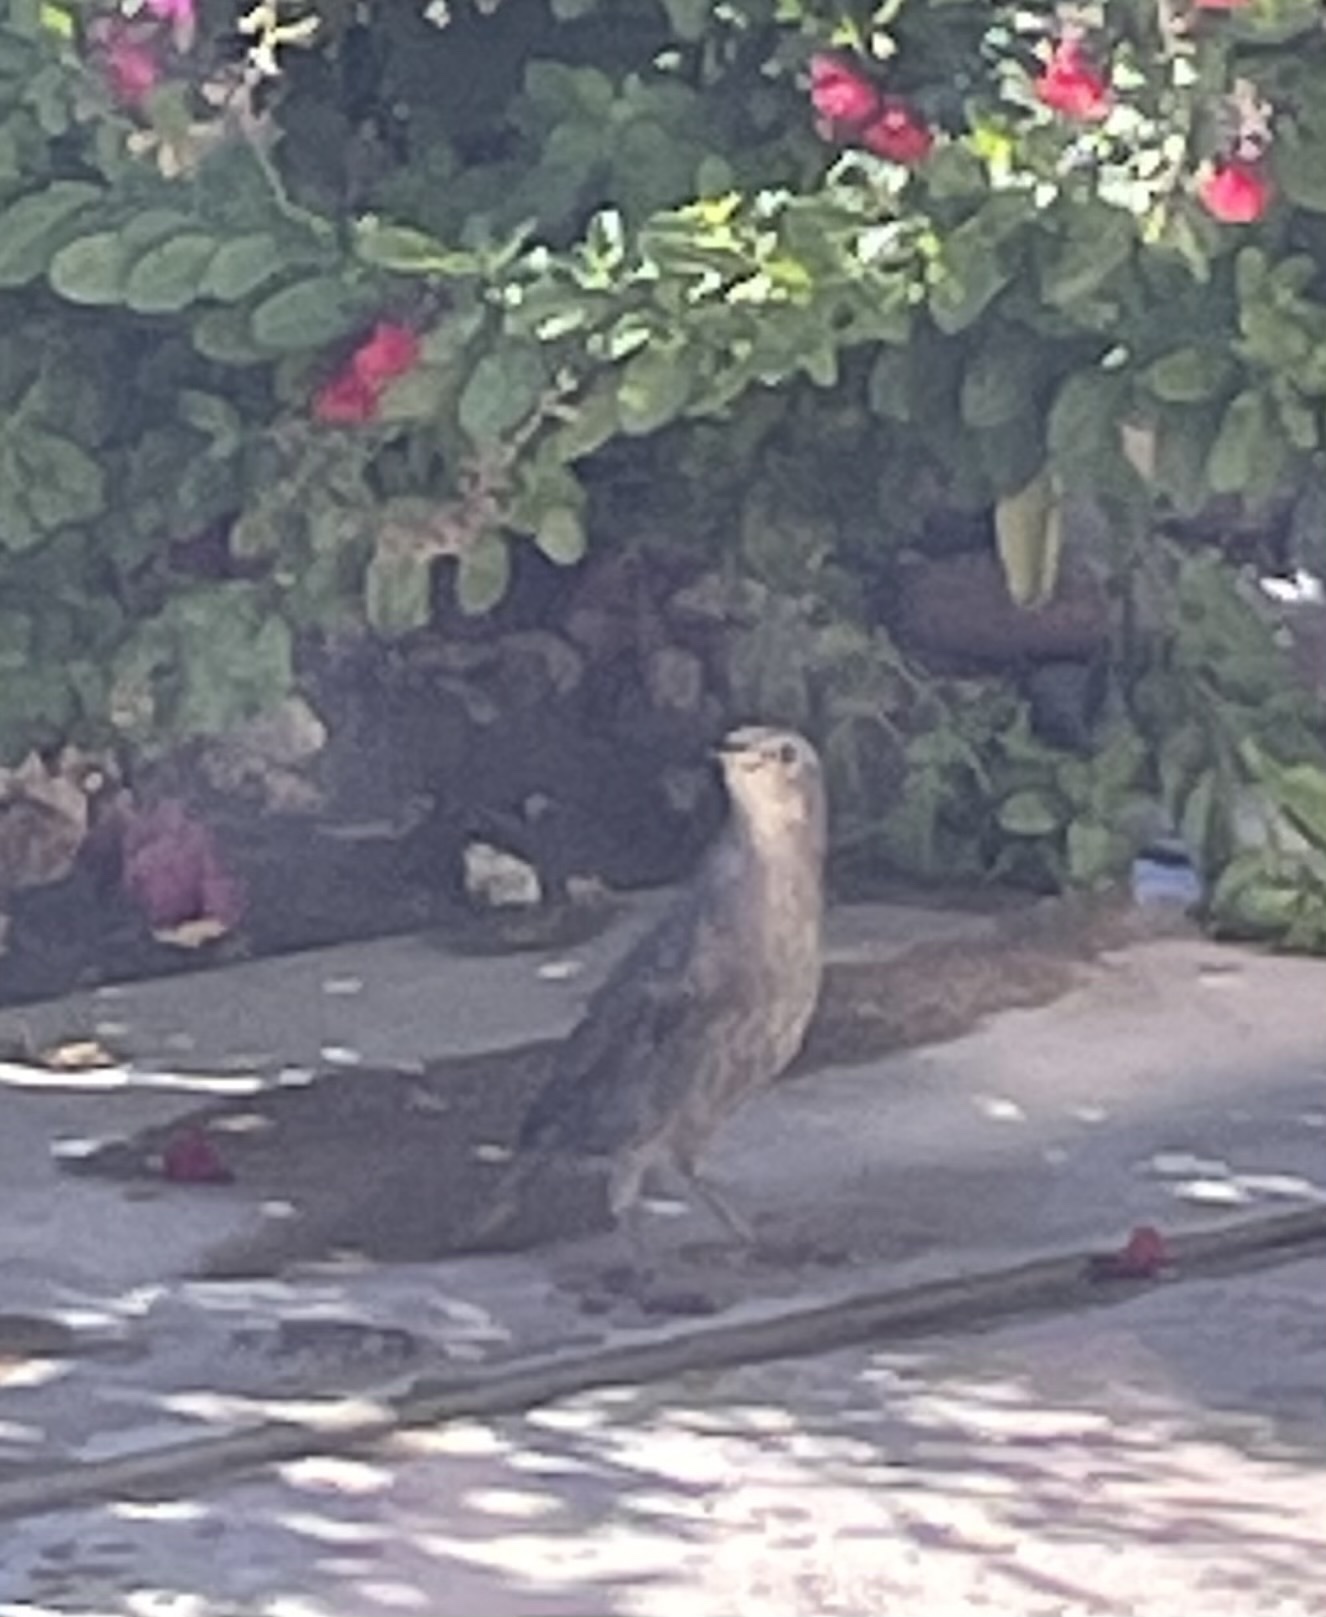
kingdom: Animalia
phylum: Chordata
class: Aves
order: Passeriformes
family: Sturnidae
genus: Sturnus
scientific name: Sturnus vulgaris
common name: Common starling
